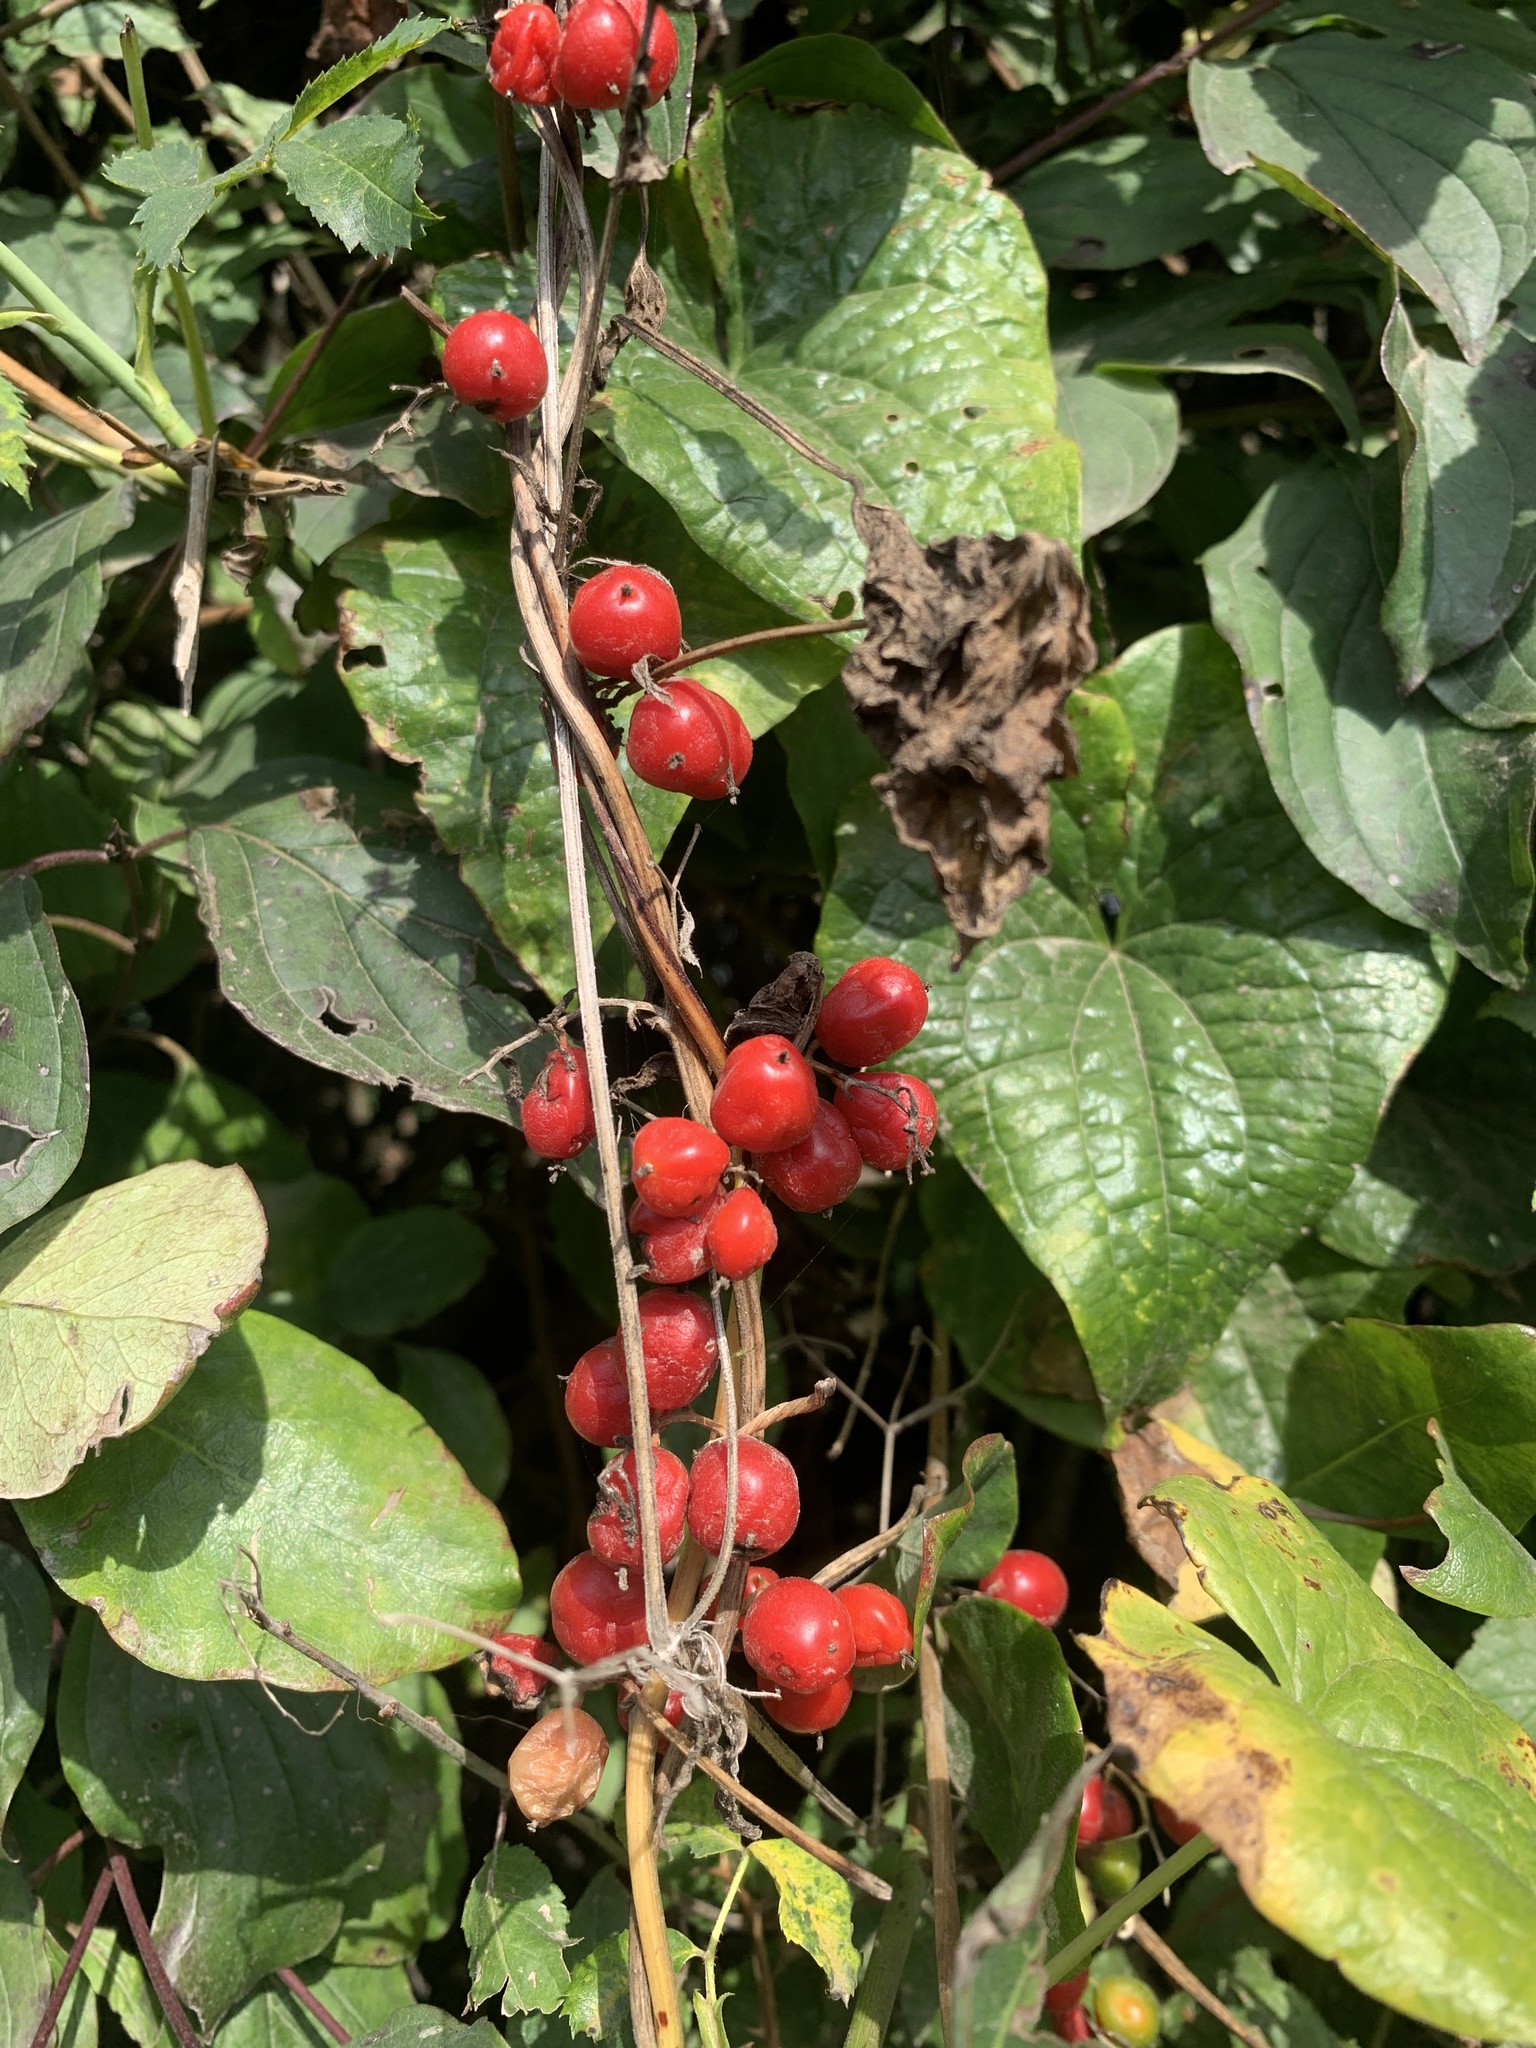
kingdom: Plantae
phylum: Tracheophyta
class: Liliopsida
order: Dioscoreales
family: Dioscoreaceae
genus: Dioscorea
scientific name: Dioscorea communis
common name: Black-bindweed
